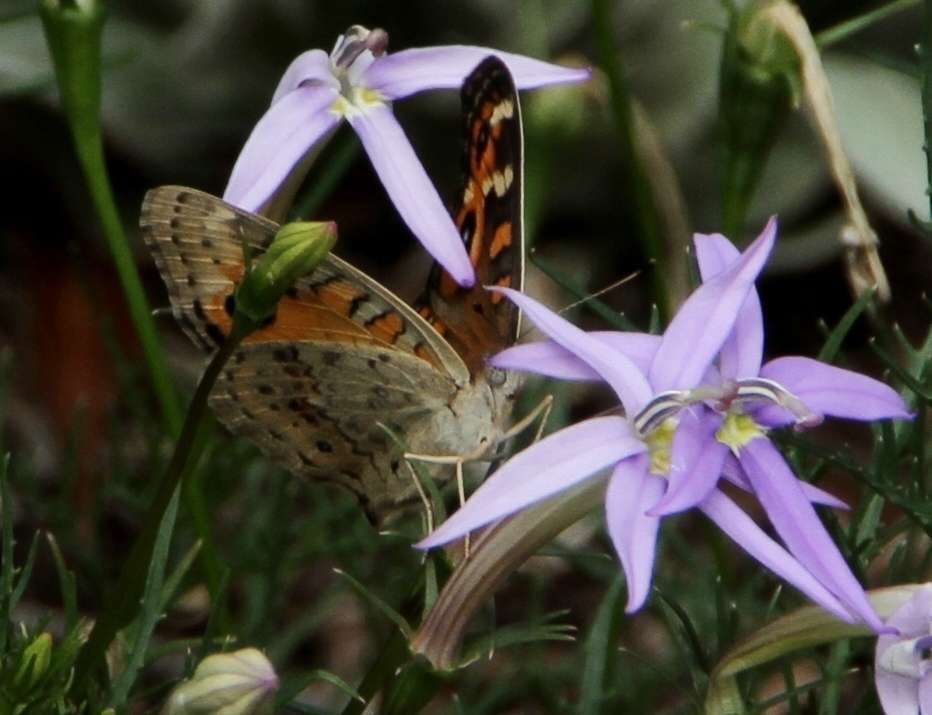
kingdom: Animalia
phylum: Arthropoda
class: Insecta
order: Lepidoptera
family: Nymphalidae
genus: Junonia
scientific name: Junonia villida
